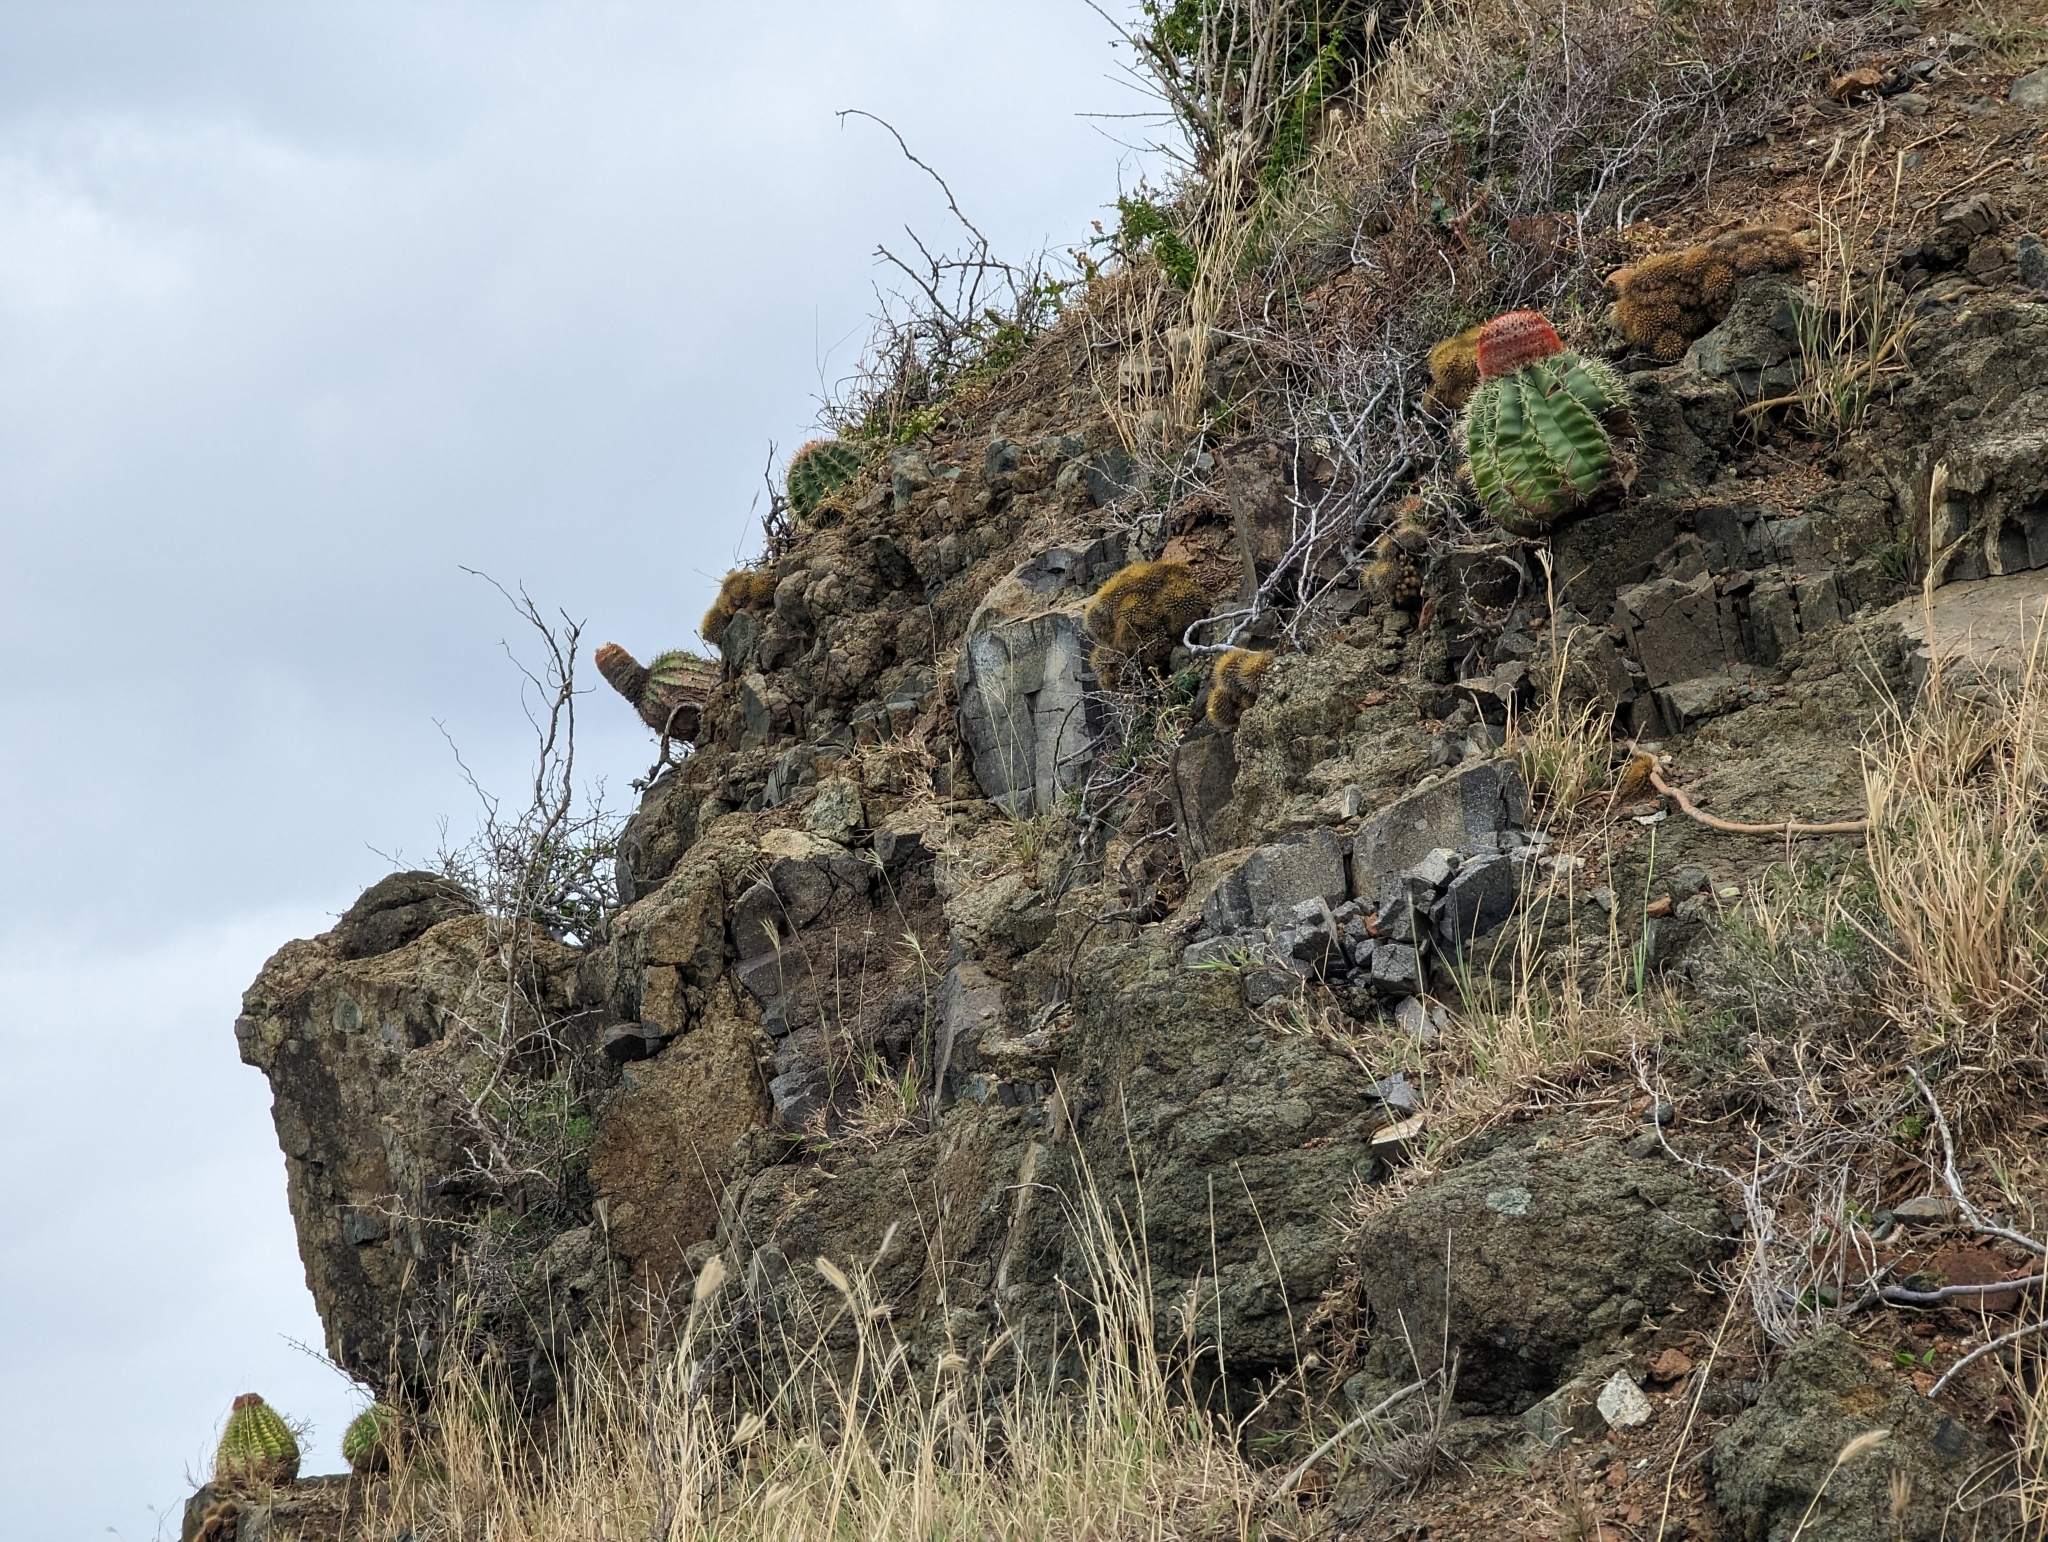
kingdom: Plantae
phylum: Tracheophyta
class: Magnoliopsida
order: Caryophyllales
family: Cactaceae
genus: Melocactus
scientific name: Melocactus intortus
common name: Barrel cactus
